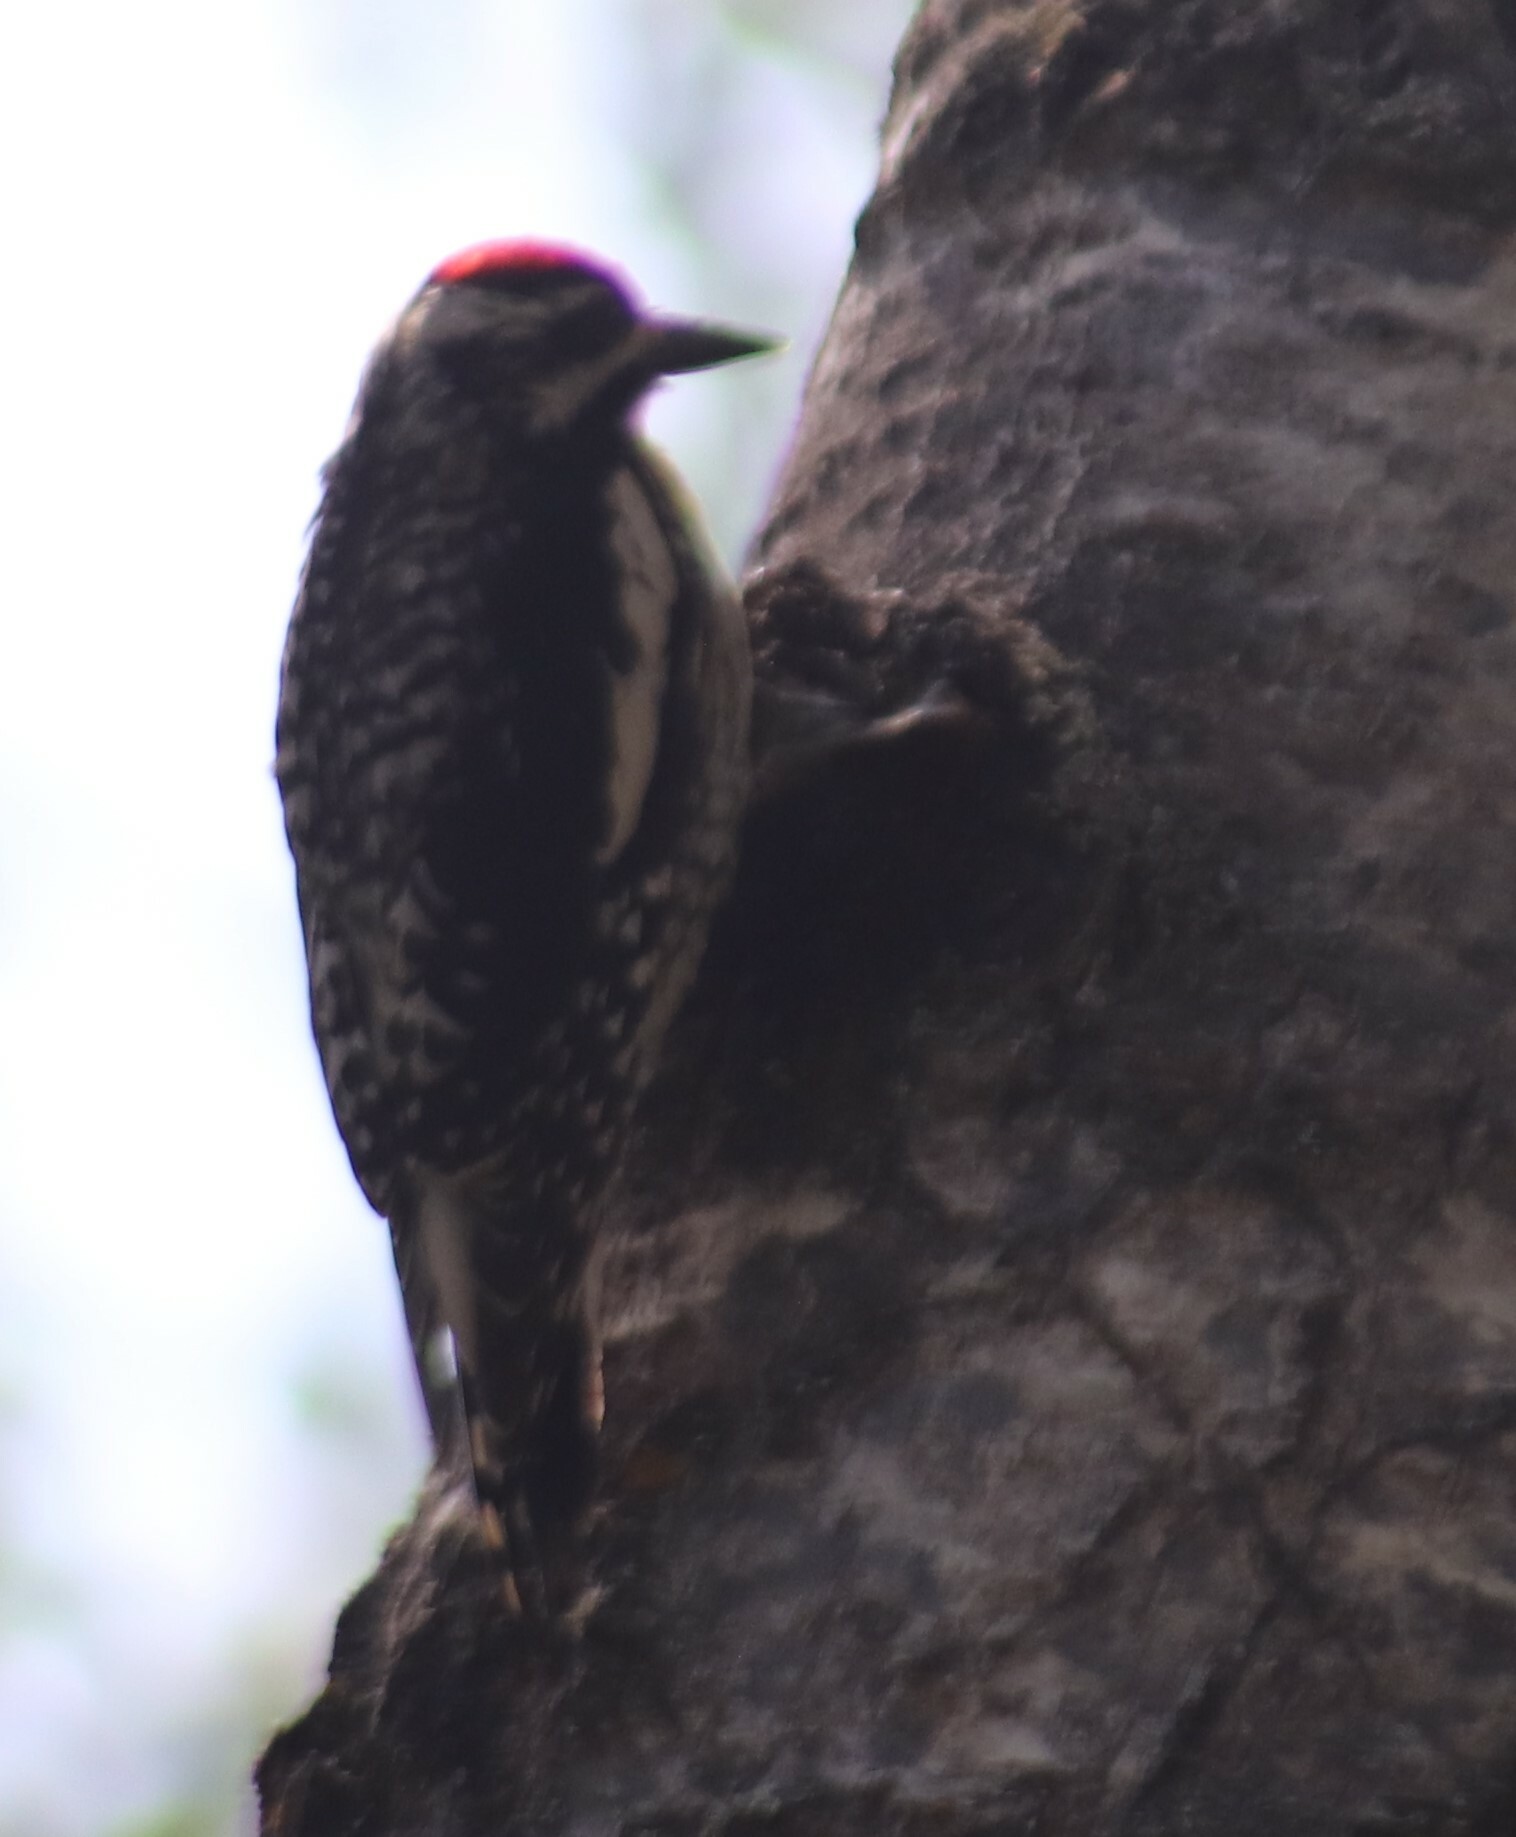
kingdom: Animalia
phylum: Chordata
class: Aves
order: Piciformes
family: Picidae
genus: Sphyrapicus
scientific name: Sphyrapicus varius
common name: Yellow-bellied sapsucker
